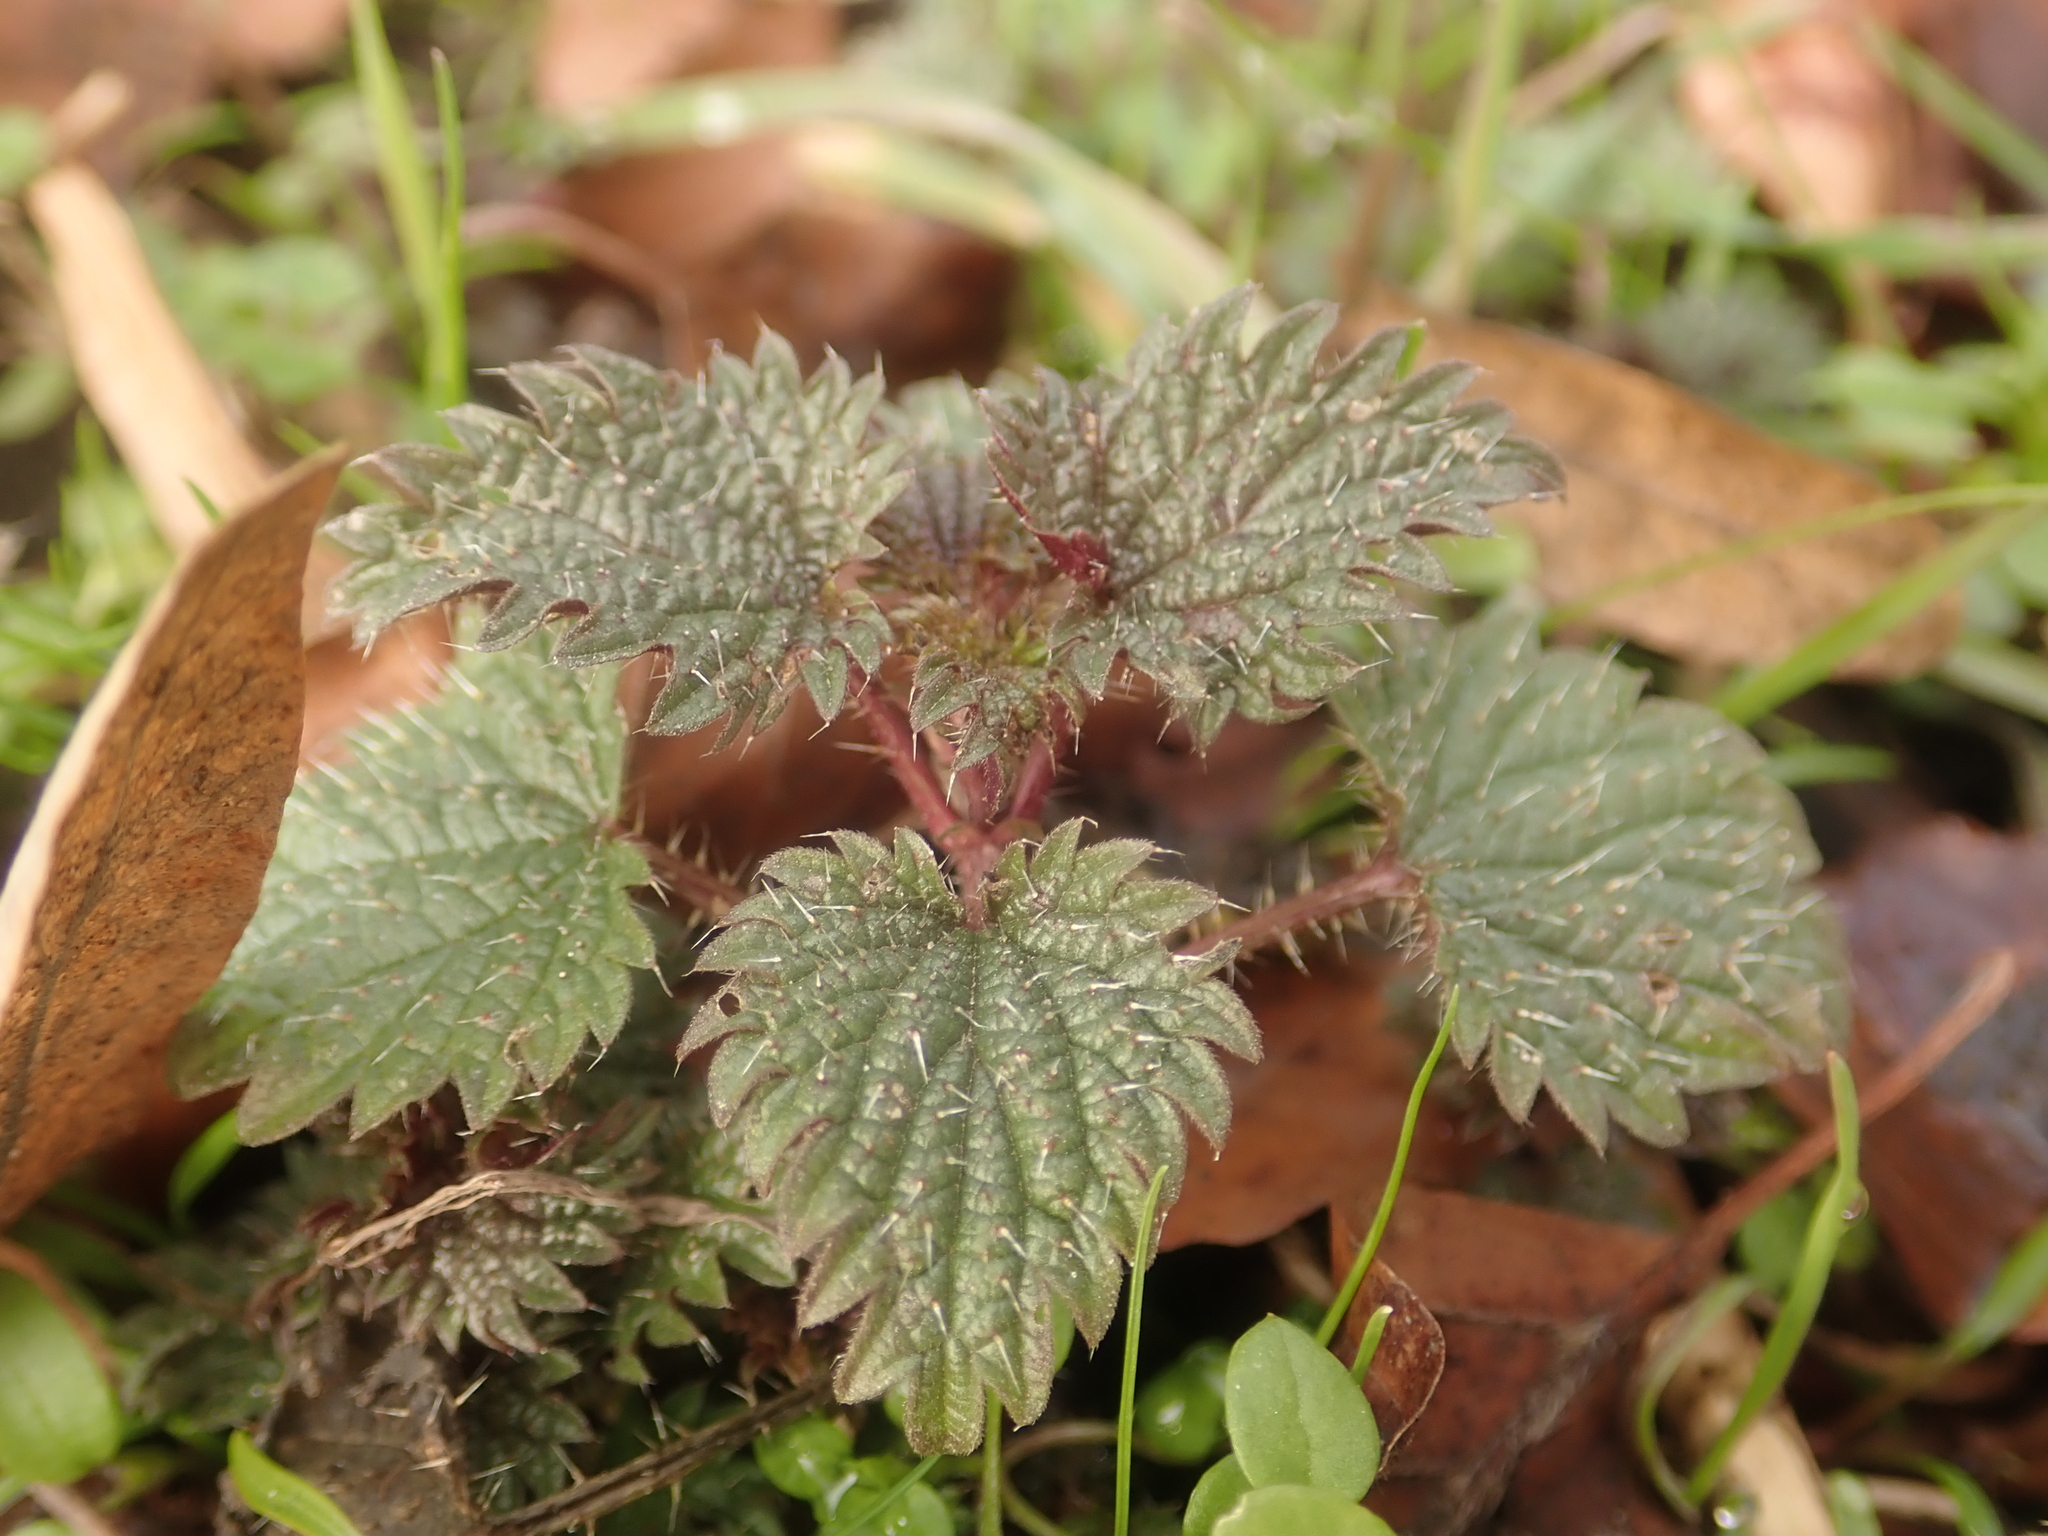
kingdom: Plantae
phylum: Tracheophyta
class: Magnoliopsida
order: Rosales
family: Urticaceae
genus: Urtica
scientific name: Urtica dioica
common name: Common nettle
